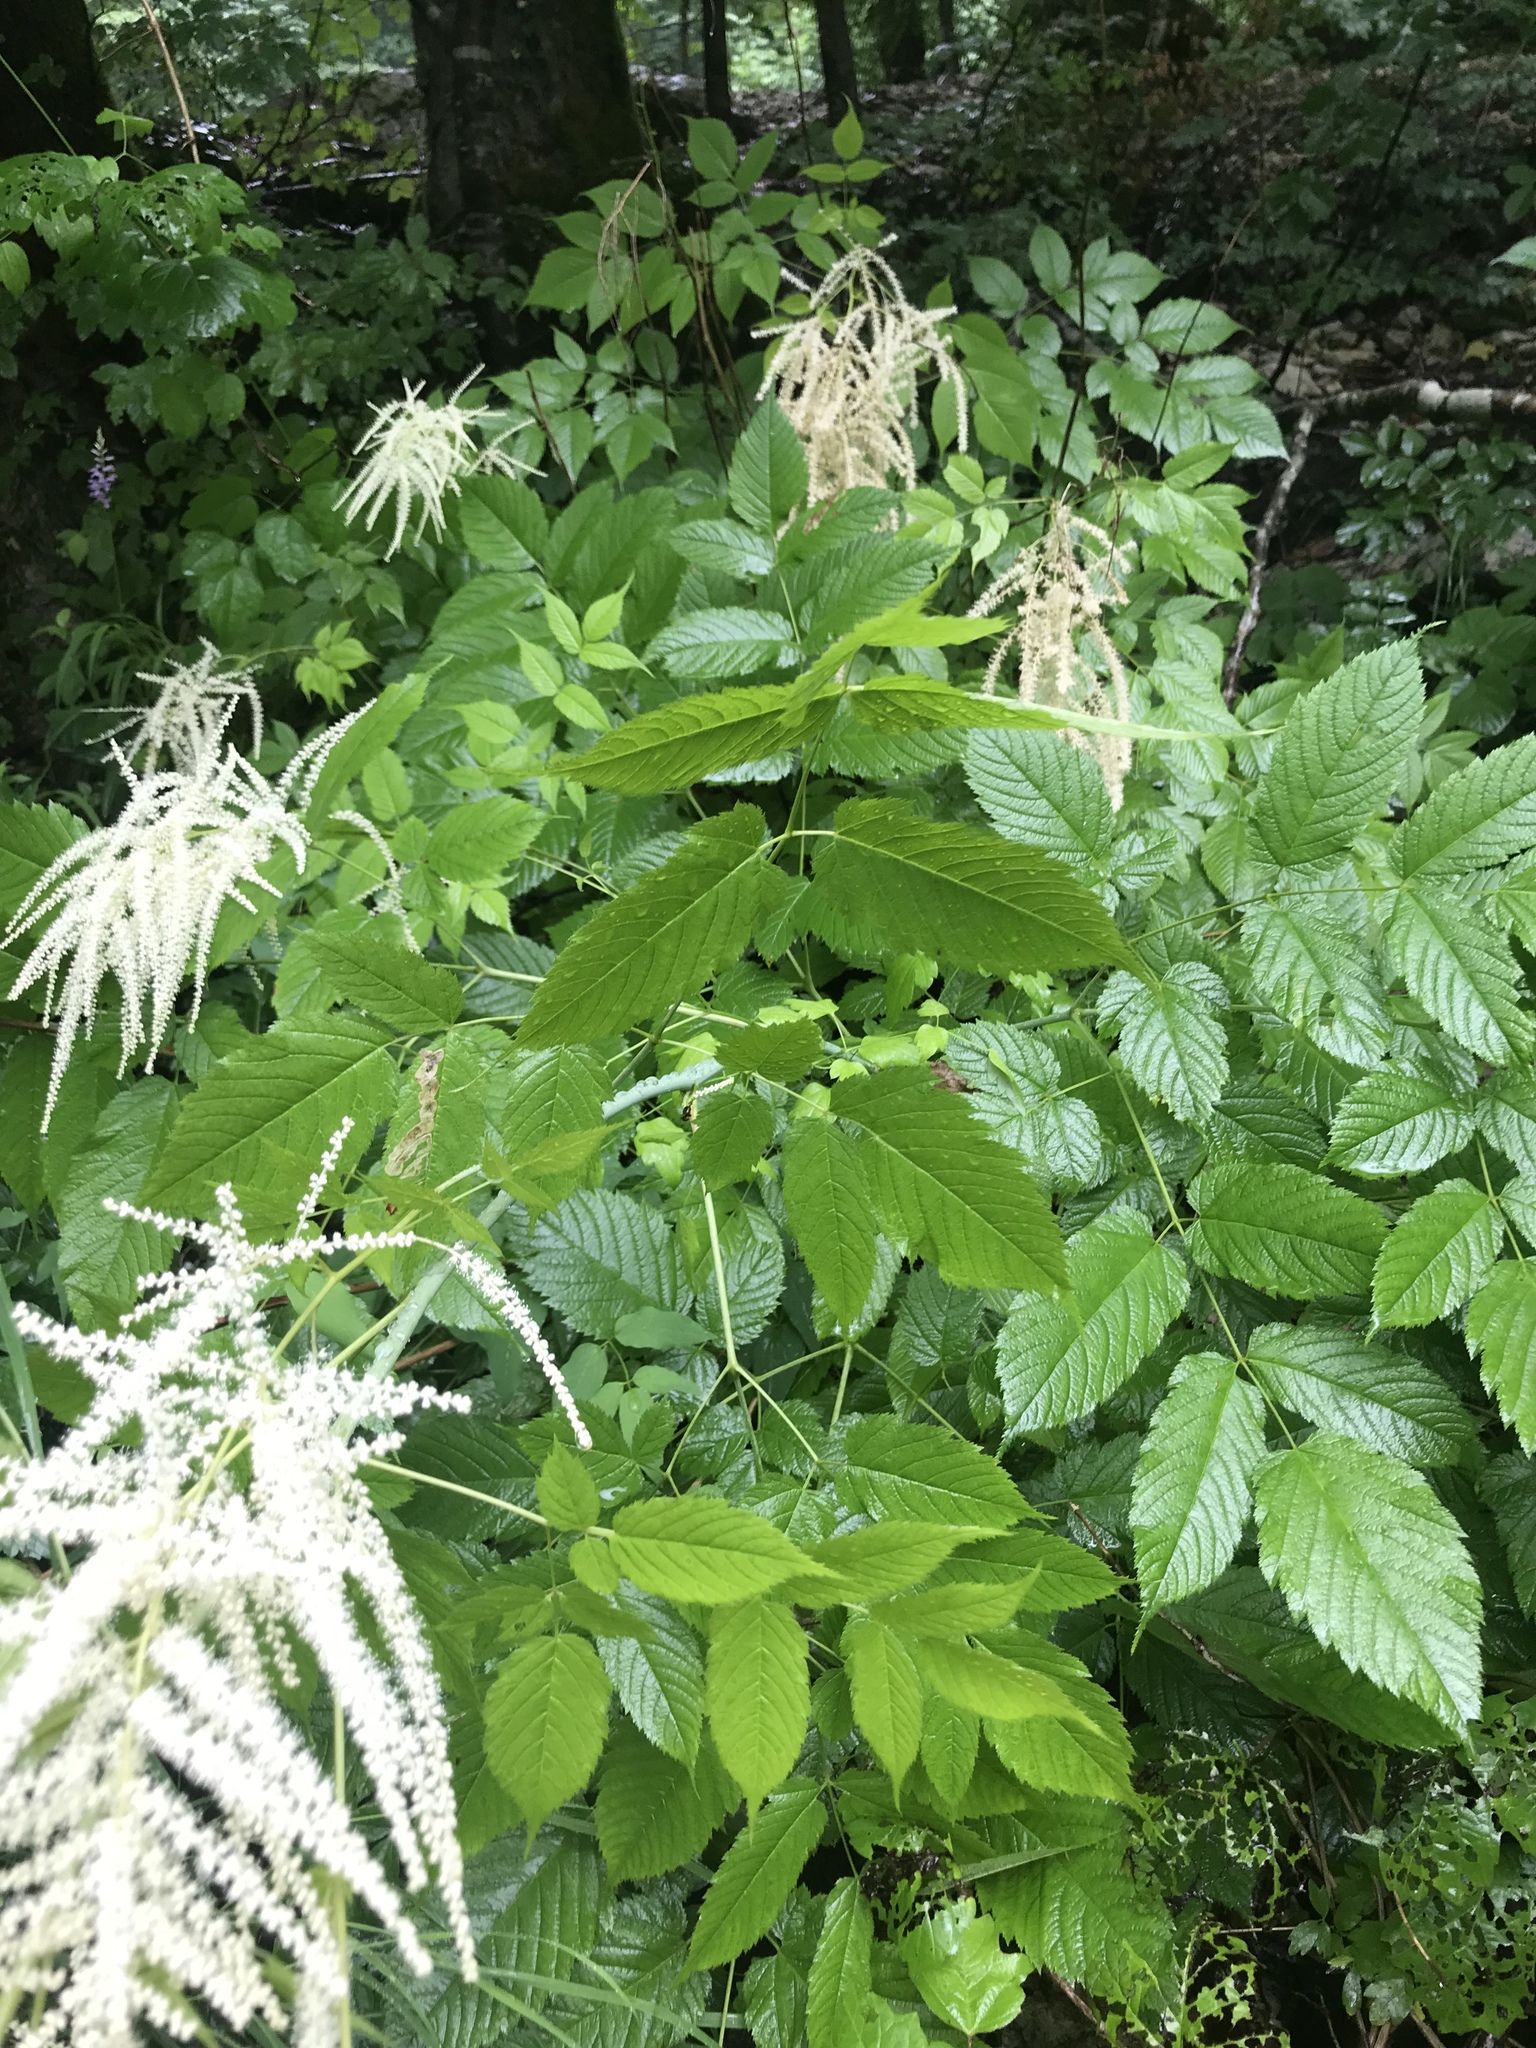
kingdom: Plantae
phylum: Tracheophyta
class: Magnoliopsida
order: Rosales
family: Rosaceae
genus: Aruncus
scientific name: Aruncus dioicus
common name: Buck's-beard
